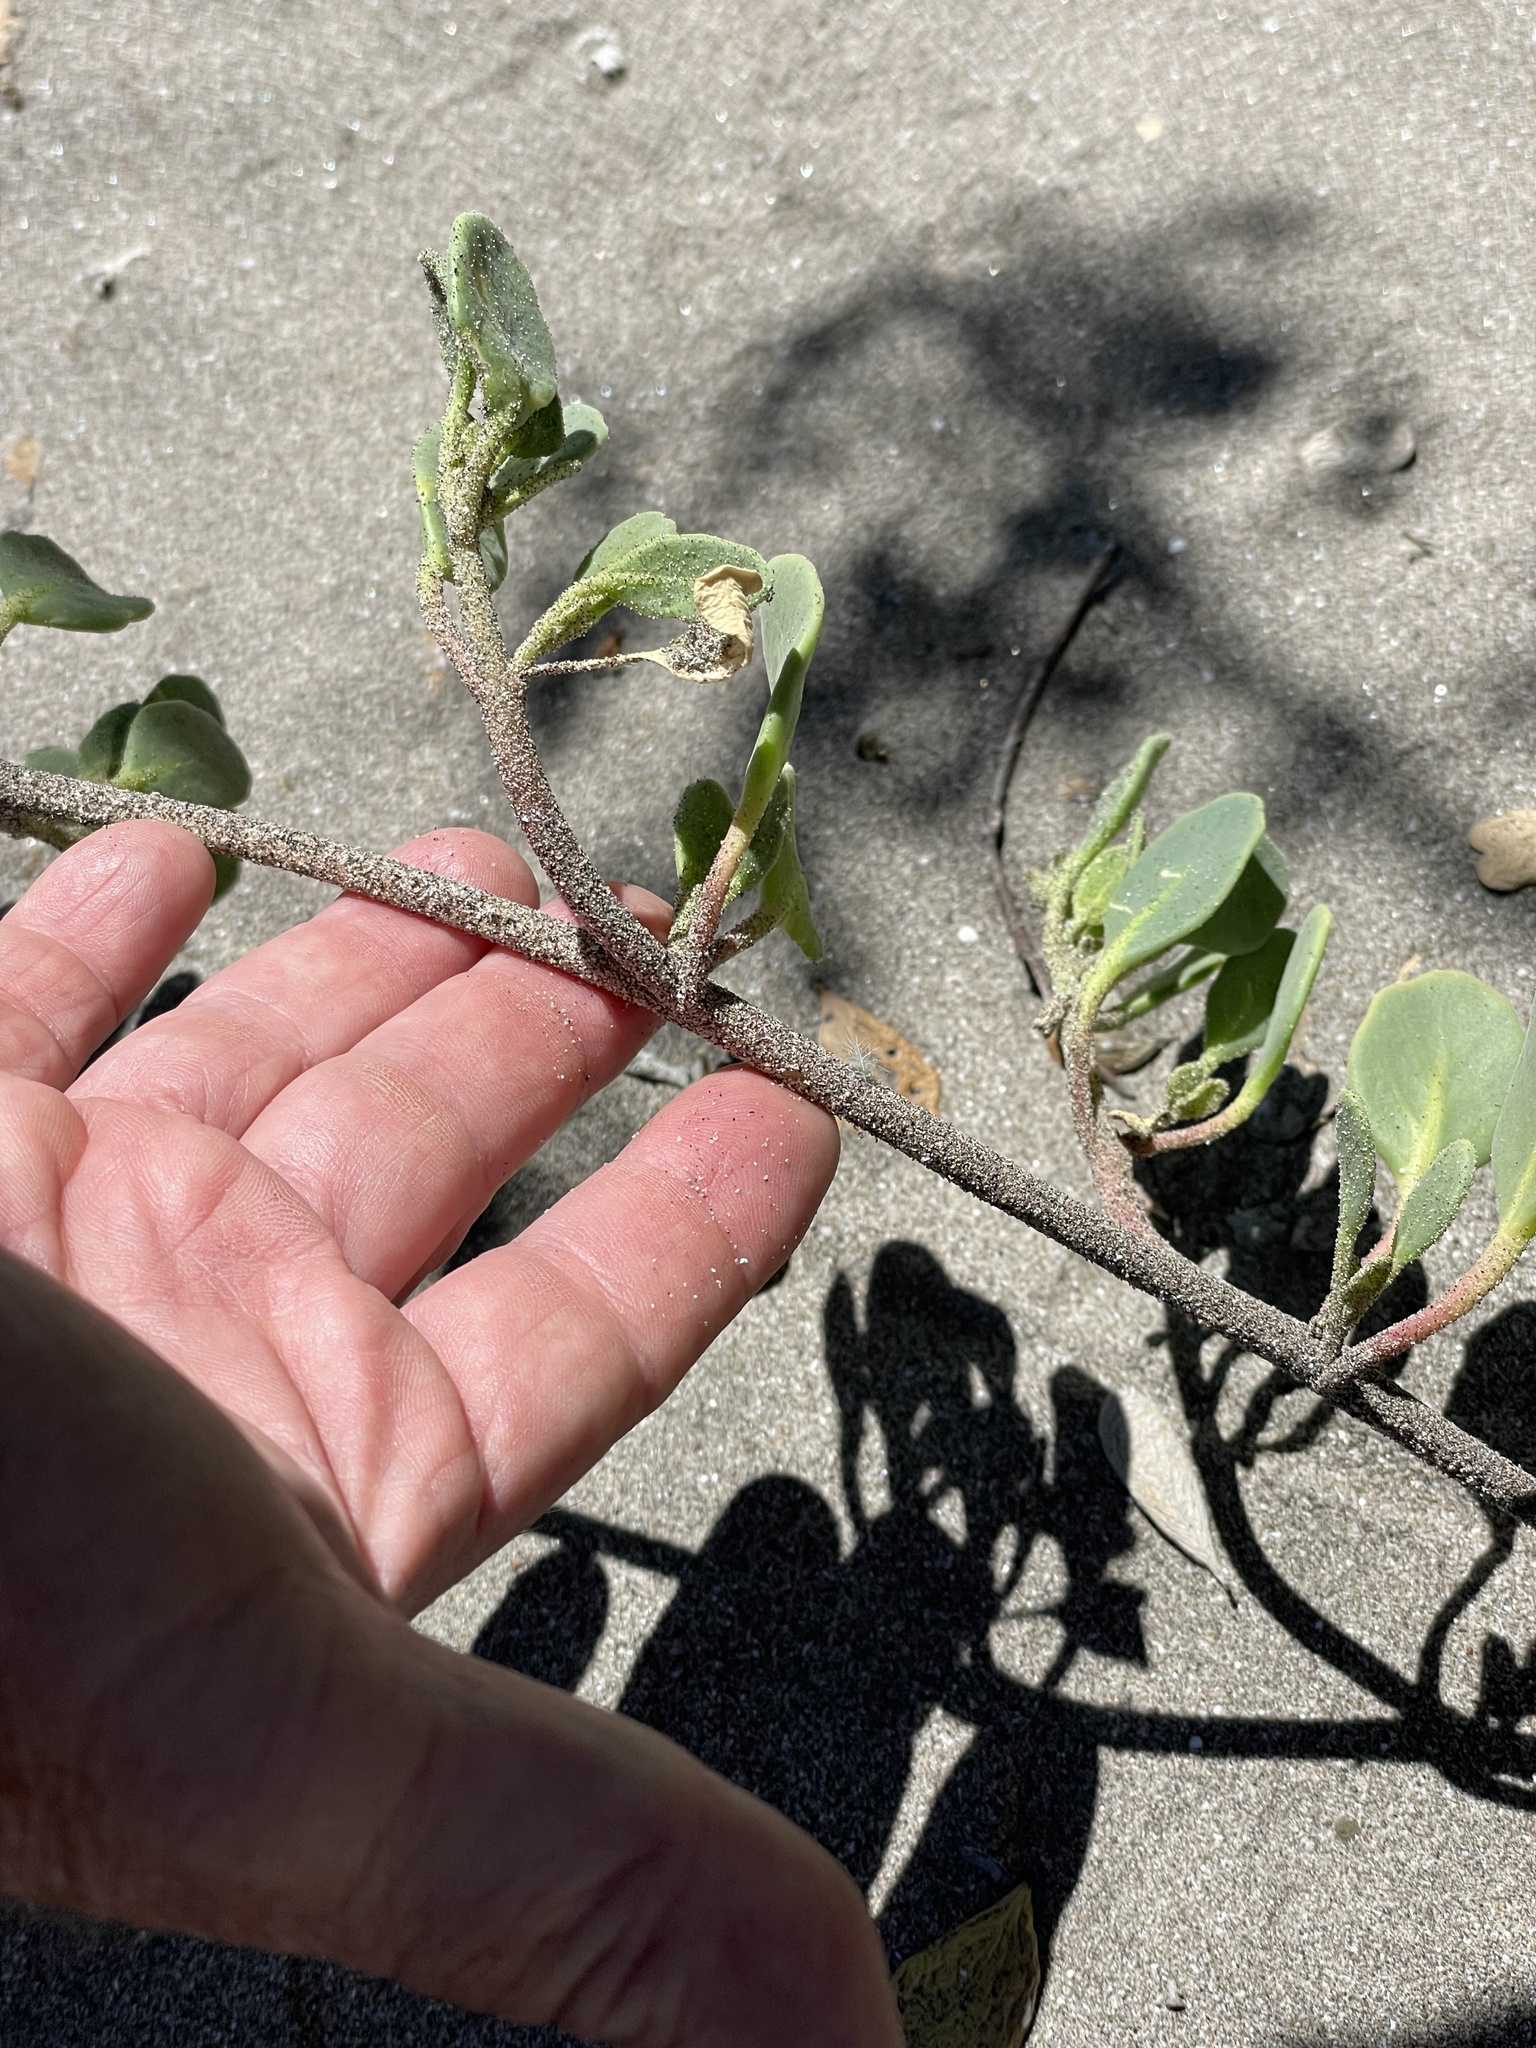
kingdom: Plantae
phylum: Tracheophyta
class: Magnoliopsida
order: Caryophyllales
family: Nyctaginaceae
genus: Abronia
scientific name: Abronia maritima
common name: Red sand-verbena
